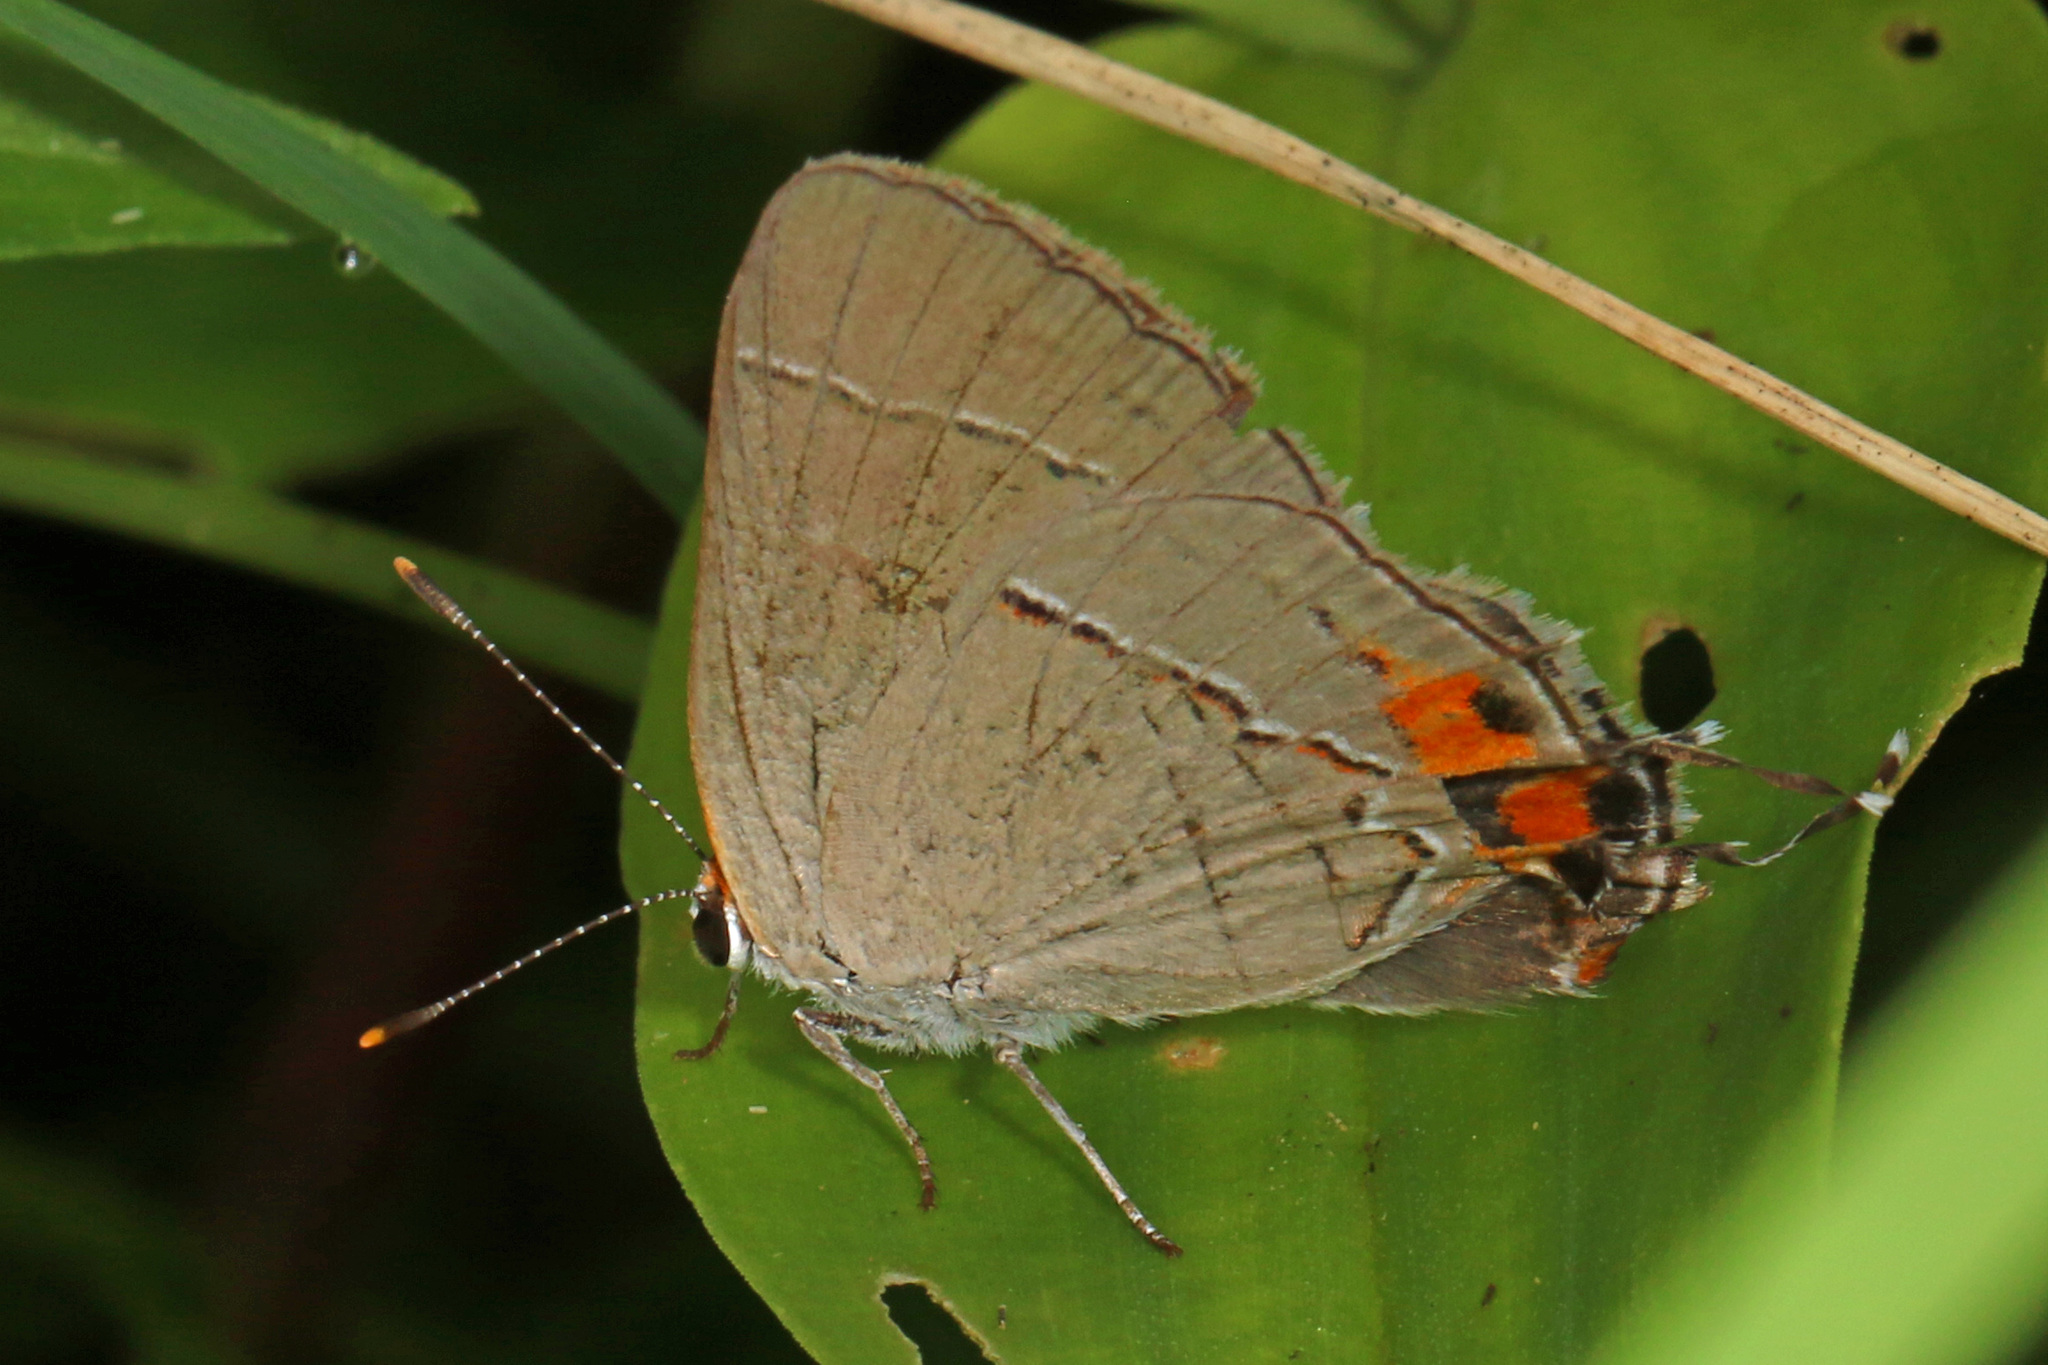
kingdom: Animalia
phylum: Arthropoda
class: Insecta
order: Lepidoptera
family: Lycaenidae
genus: Strymon
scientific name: Strymon melinus
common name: Gray hairstreak
